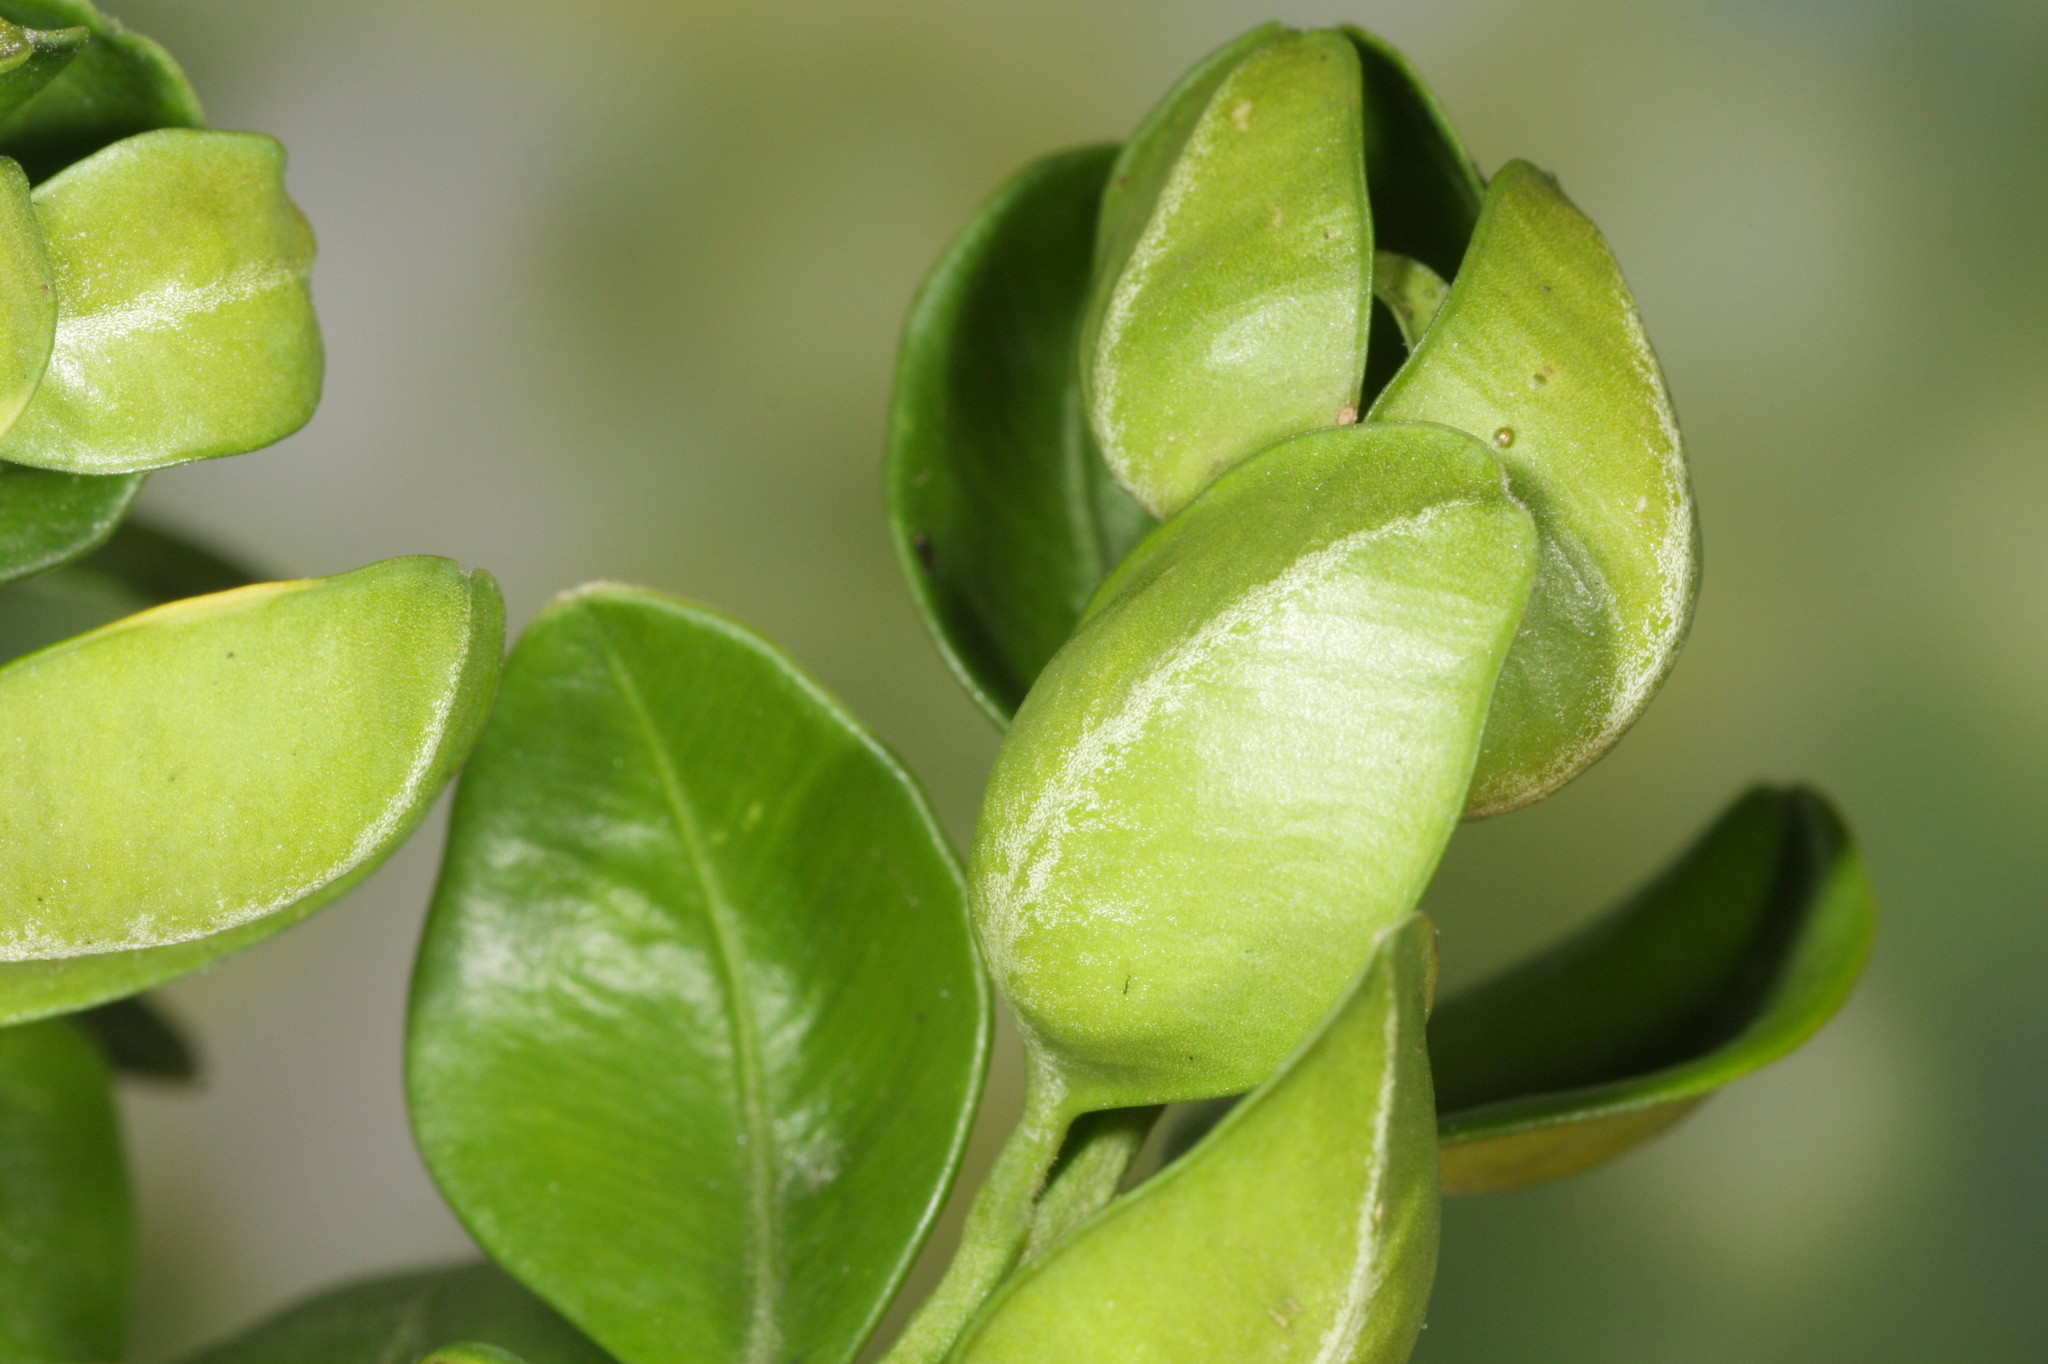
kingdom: Animalia
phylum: Arthropoda
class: Insecta
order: Hemiptera
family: Psyllidae
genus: Psylla
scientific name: Psylla buxi
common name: Boxwood psyllid
